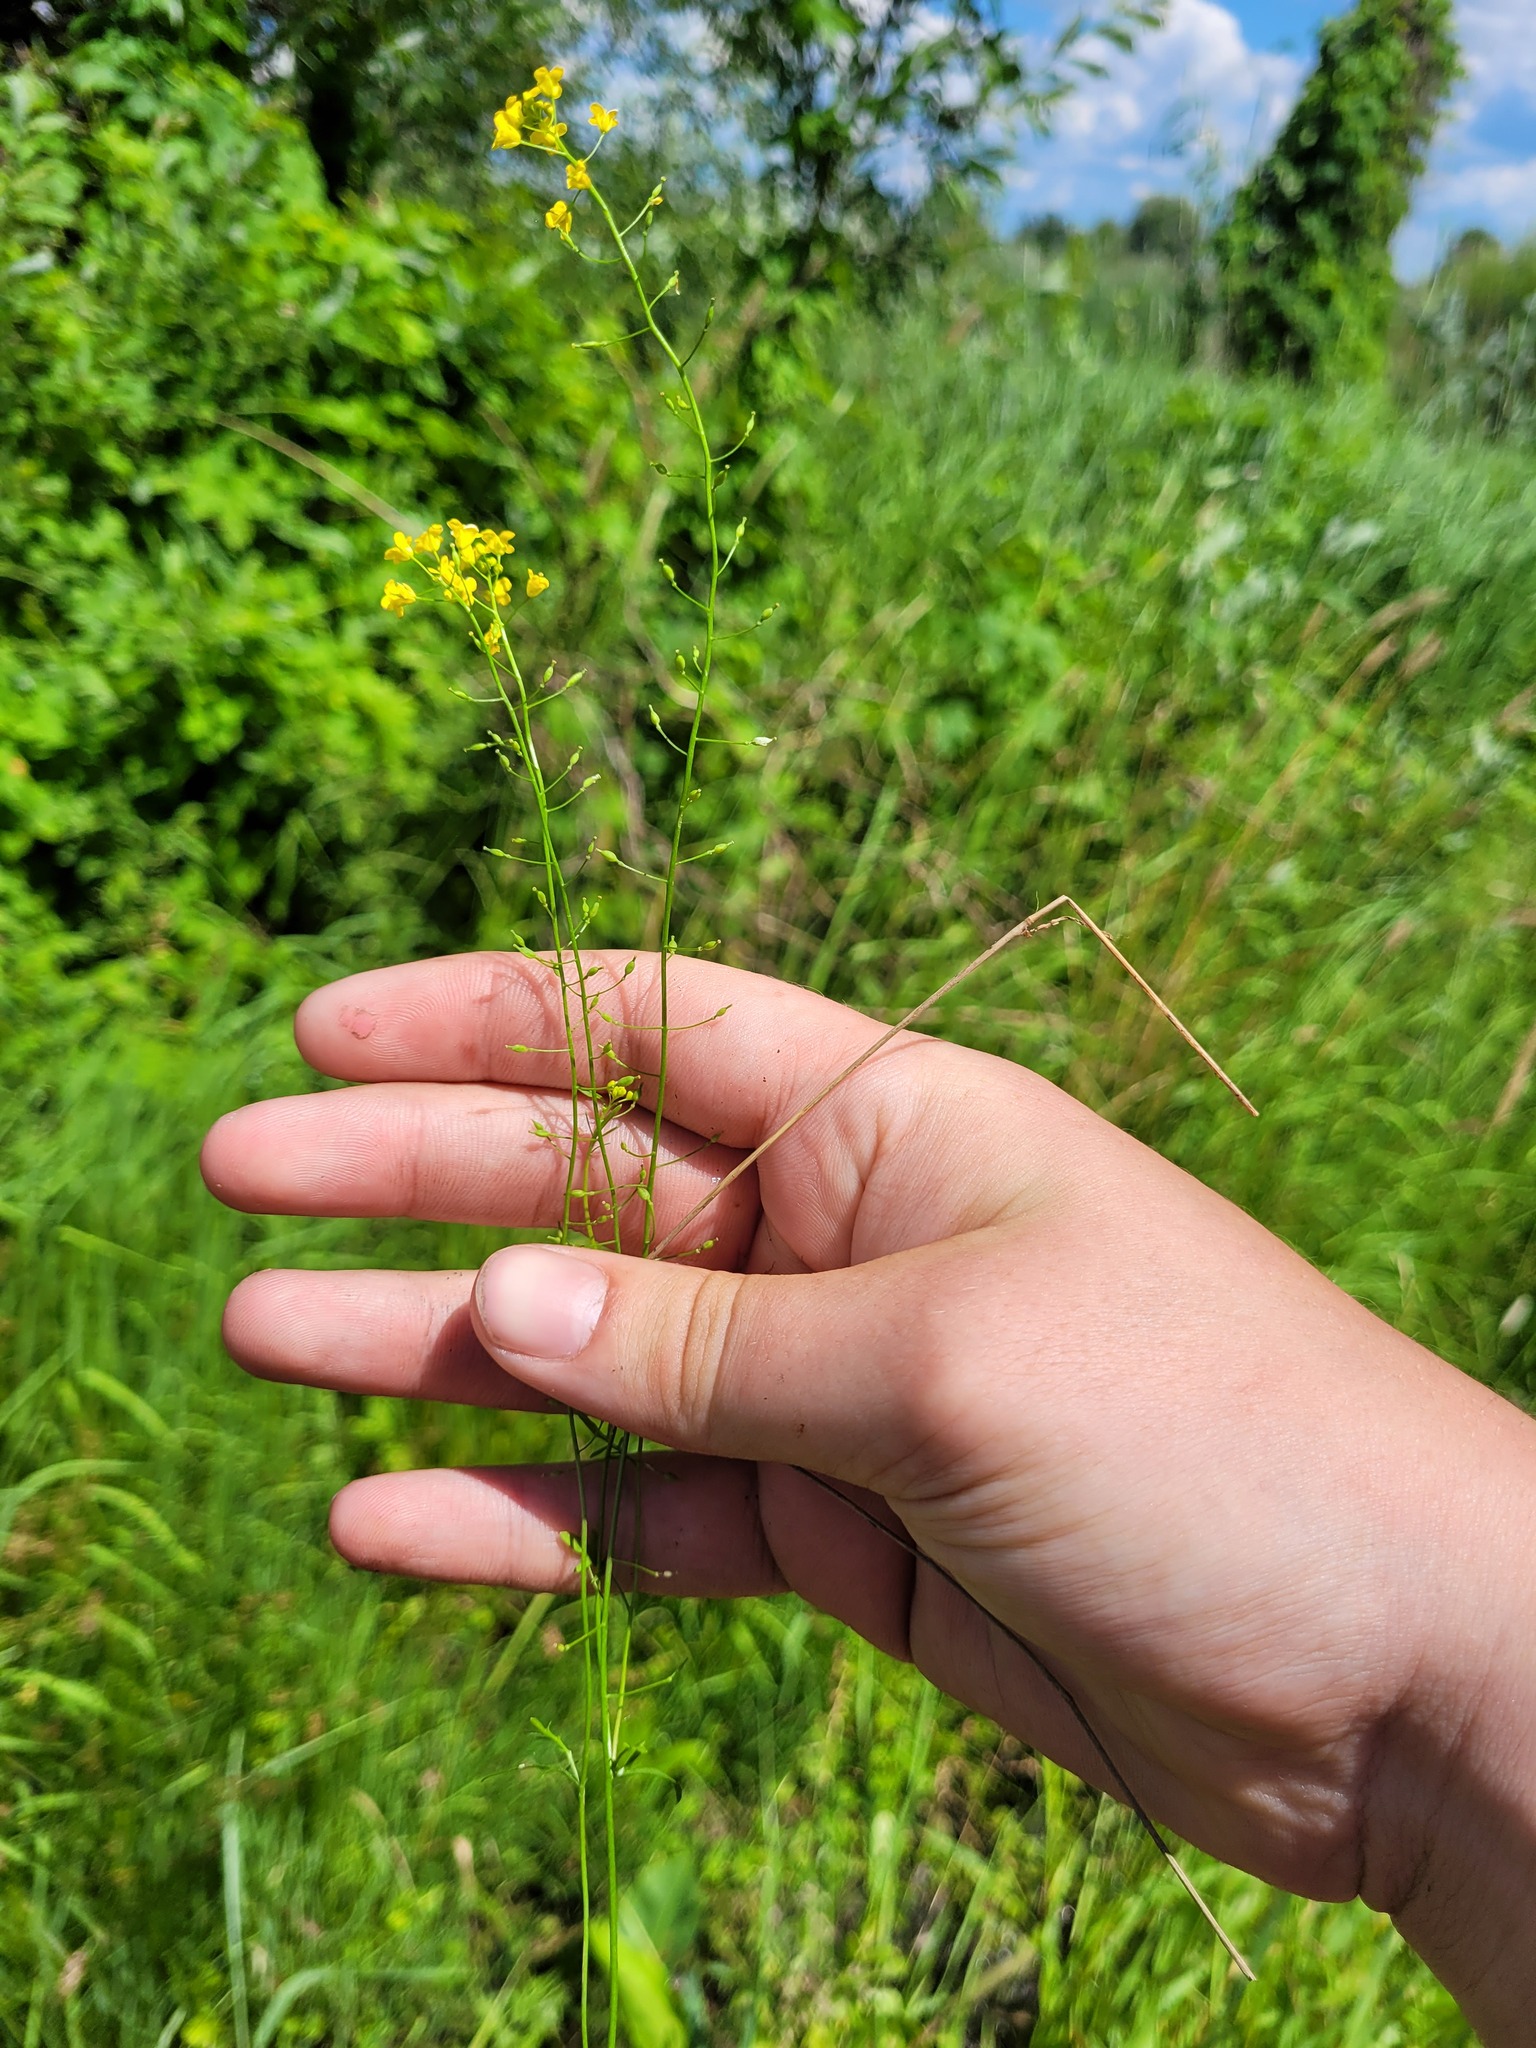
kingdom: Plantae
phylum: Tracheophyta
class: Magnoliopsida
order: Brassicales
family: Brassicaceae
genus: Rorippa
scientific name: Rorippa brachycarpa
